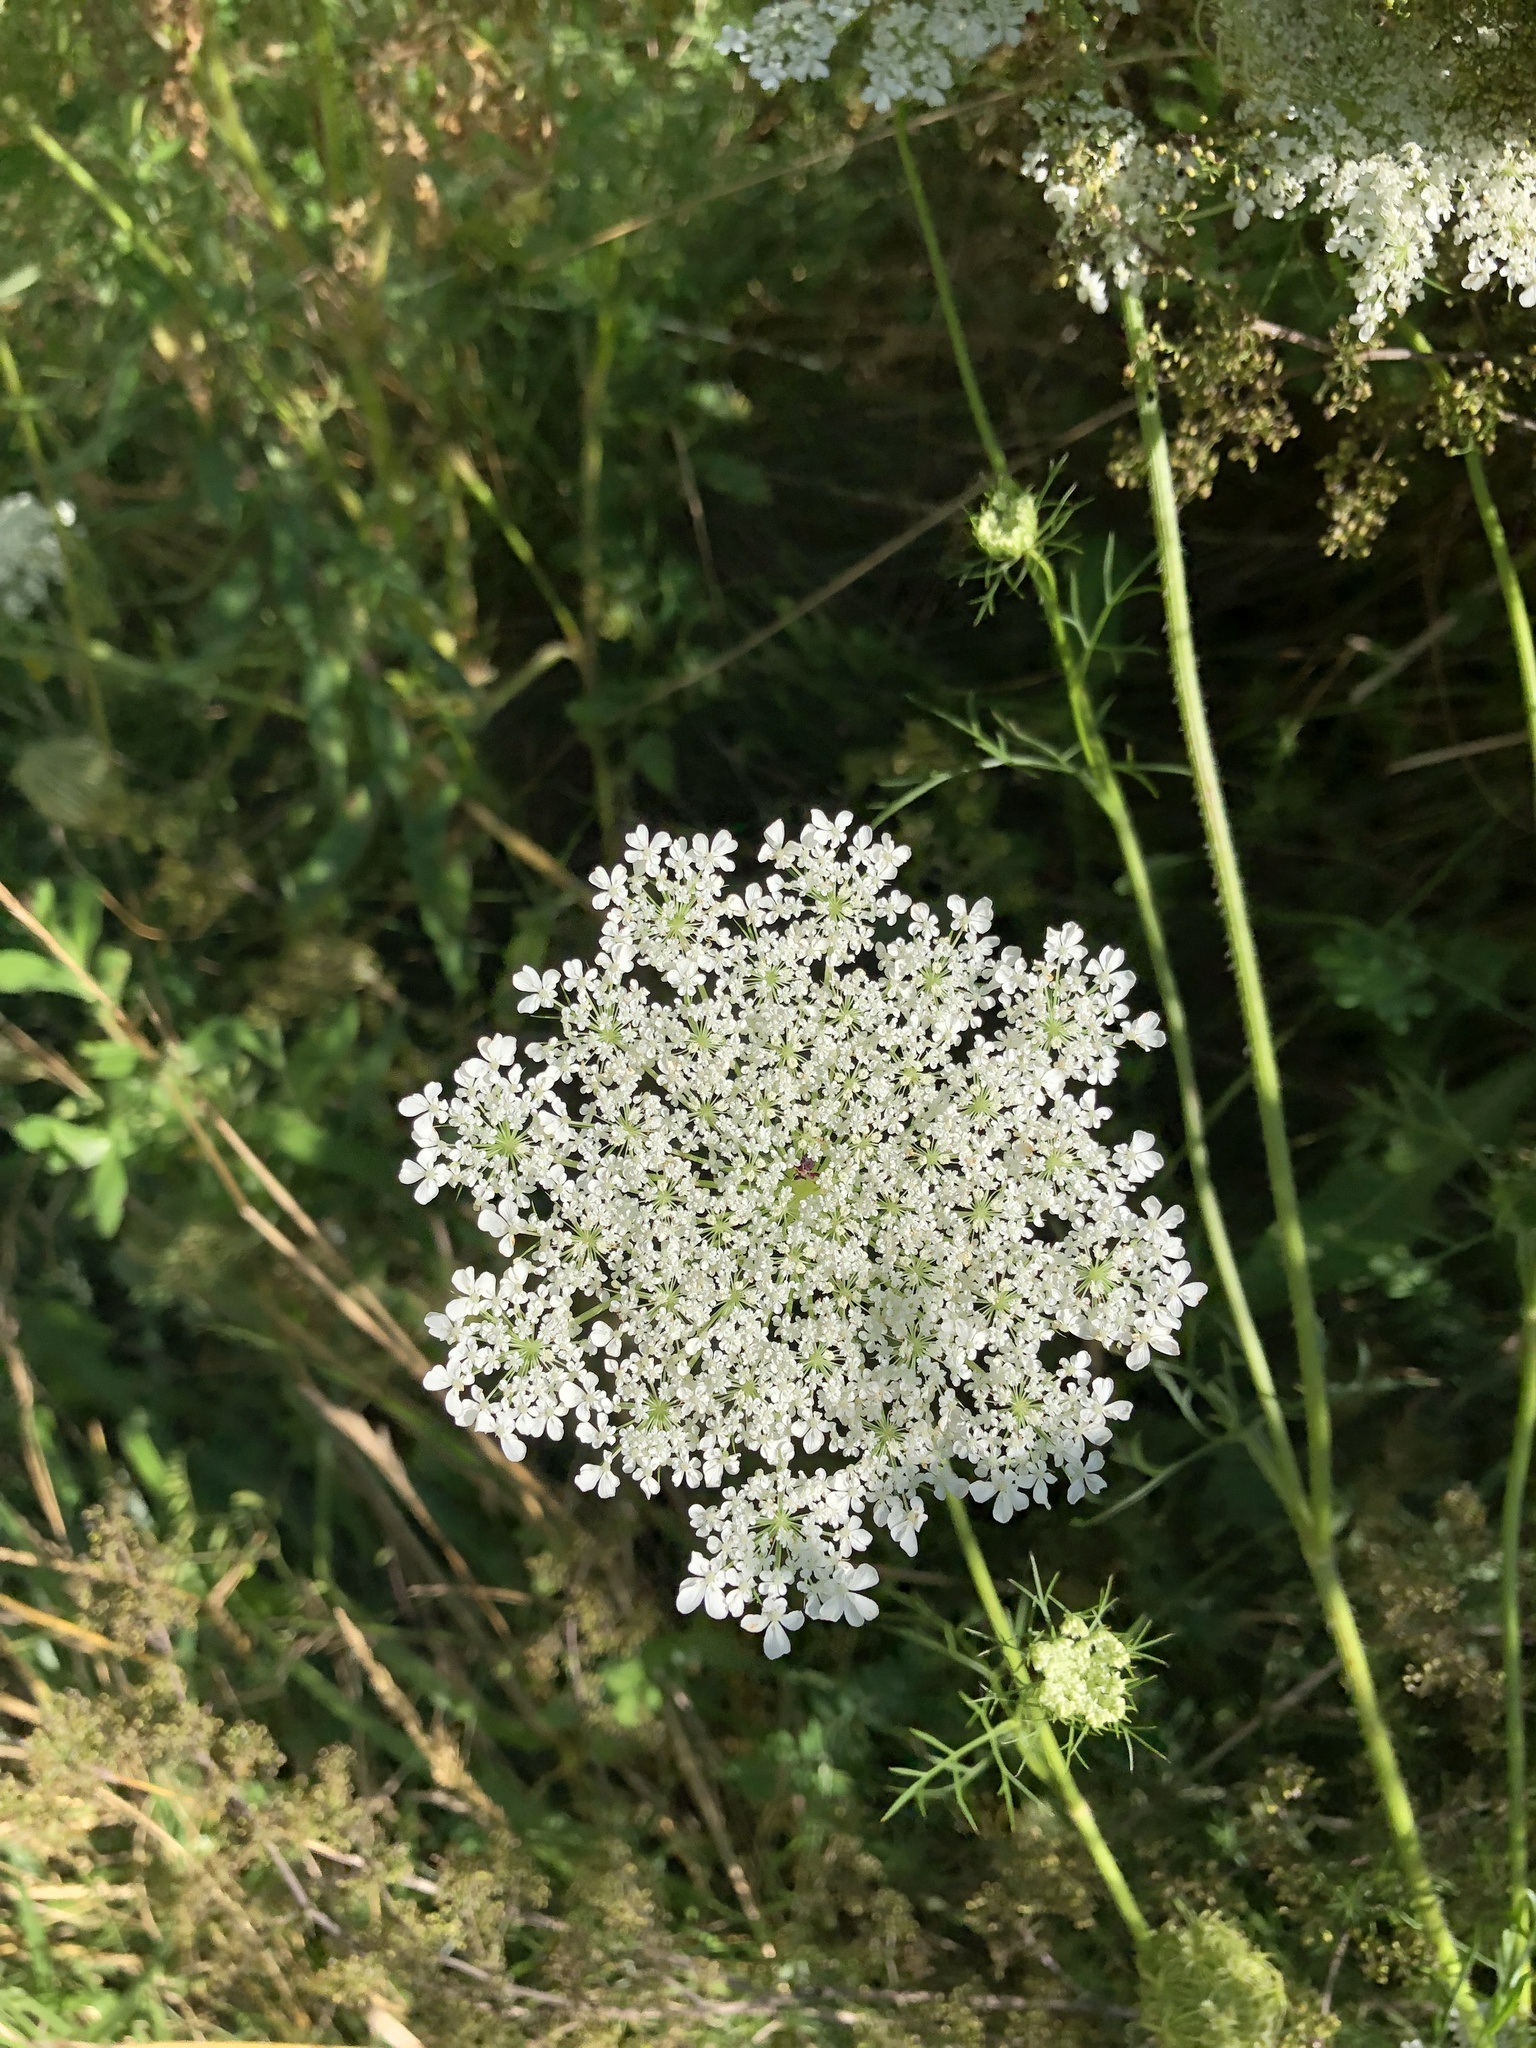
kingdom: Plantae
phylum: Tracheophyta
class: Magnoliopsida
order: Apiales
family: Apiaceae
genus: Daucus
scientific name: Daucus carota
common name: Wild carrot
